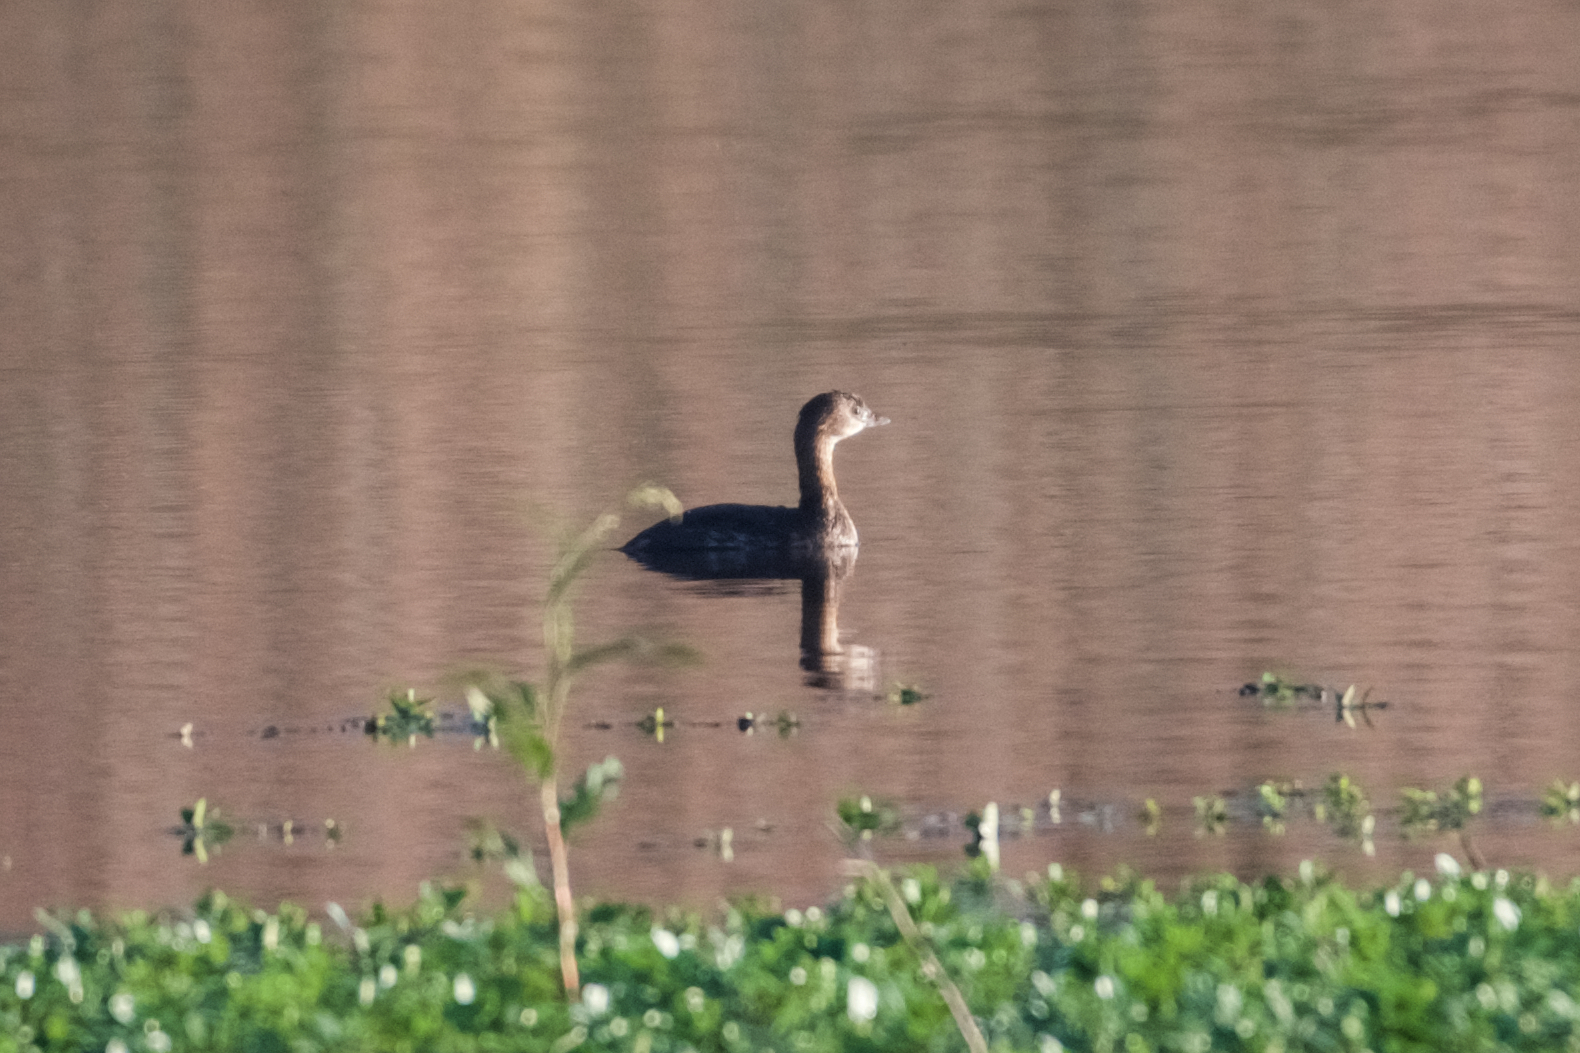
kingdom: Animalia
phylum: Chordata
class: Aves
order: Podicipediformes
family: Podicipedidae
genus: Podilymbus
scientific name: Podilymbus podiceps
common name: Pied-billed grebe
